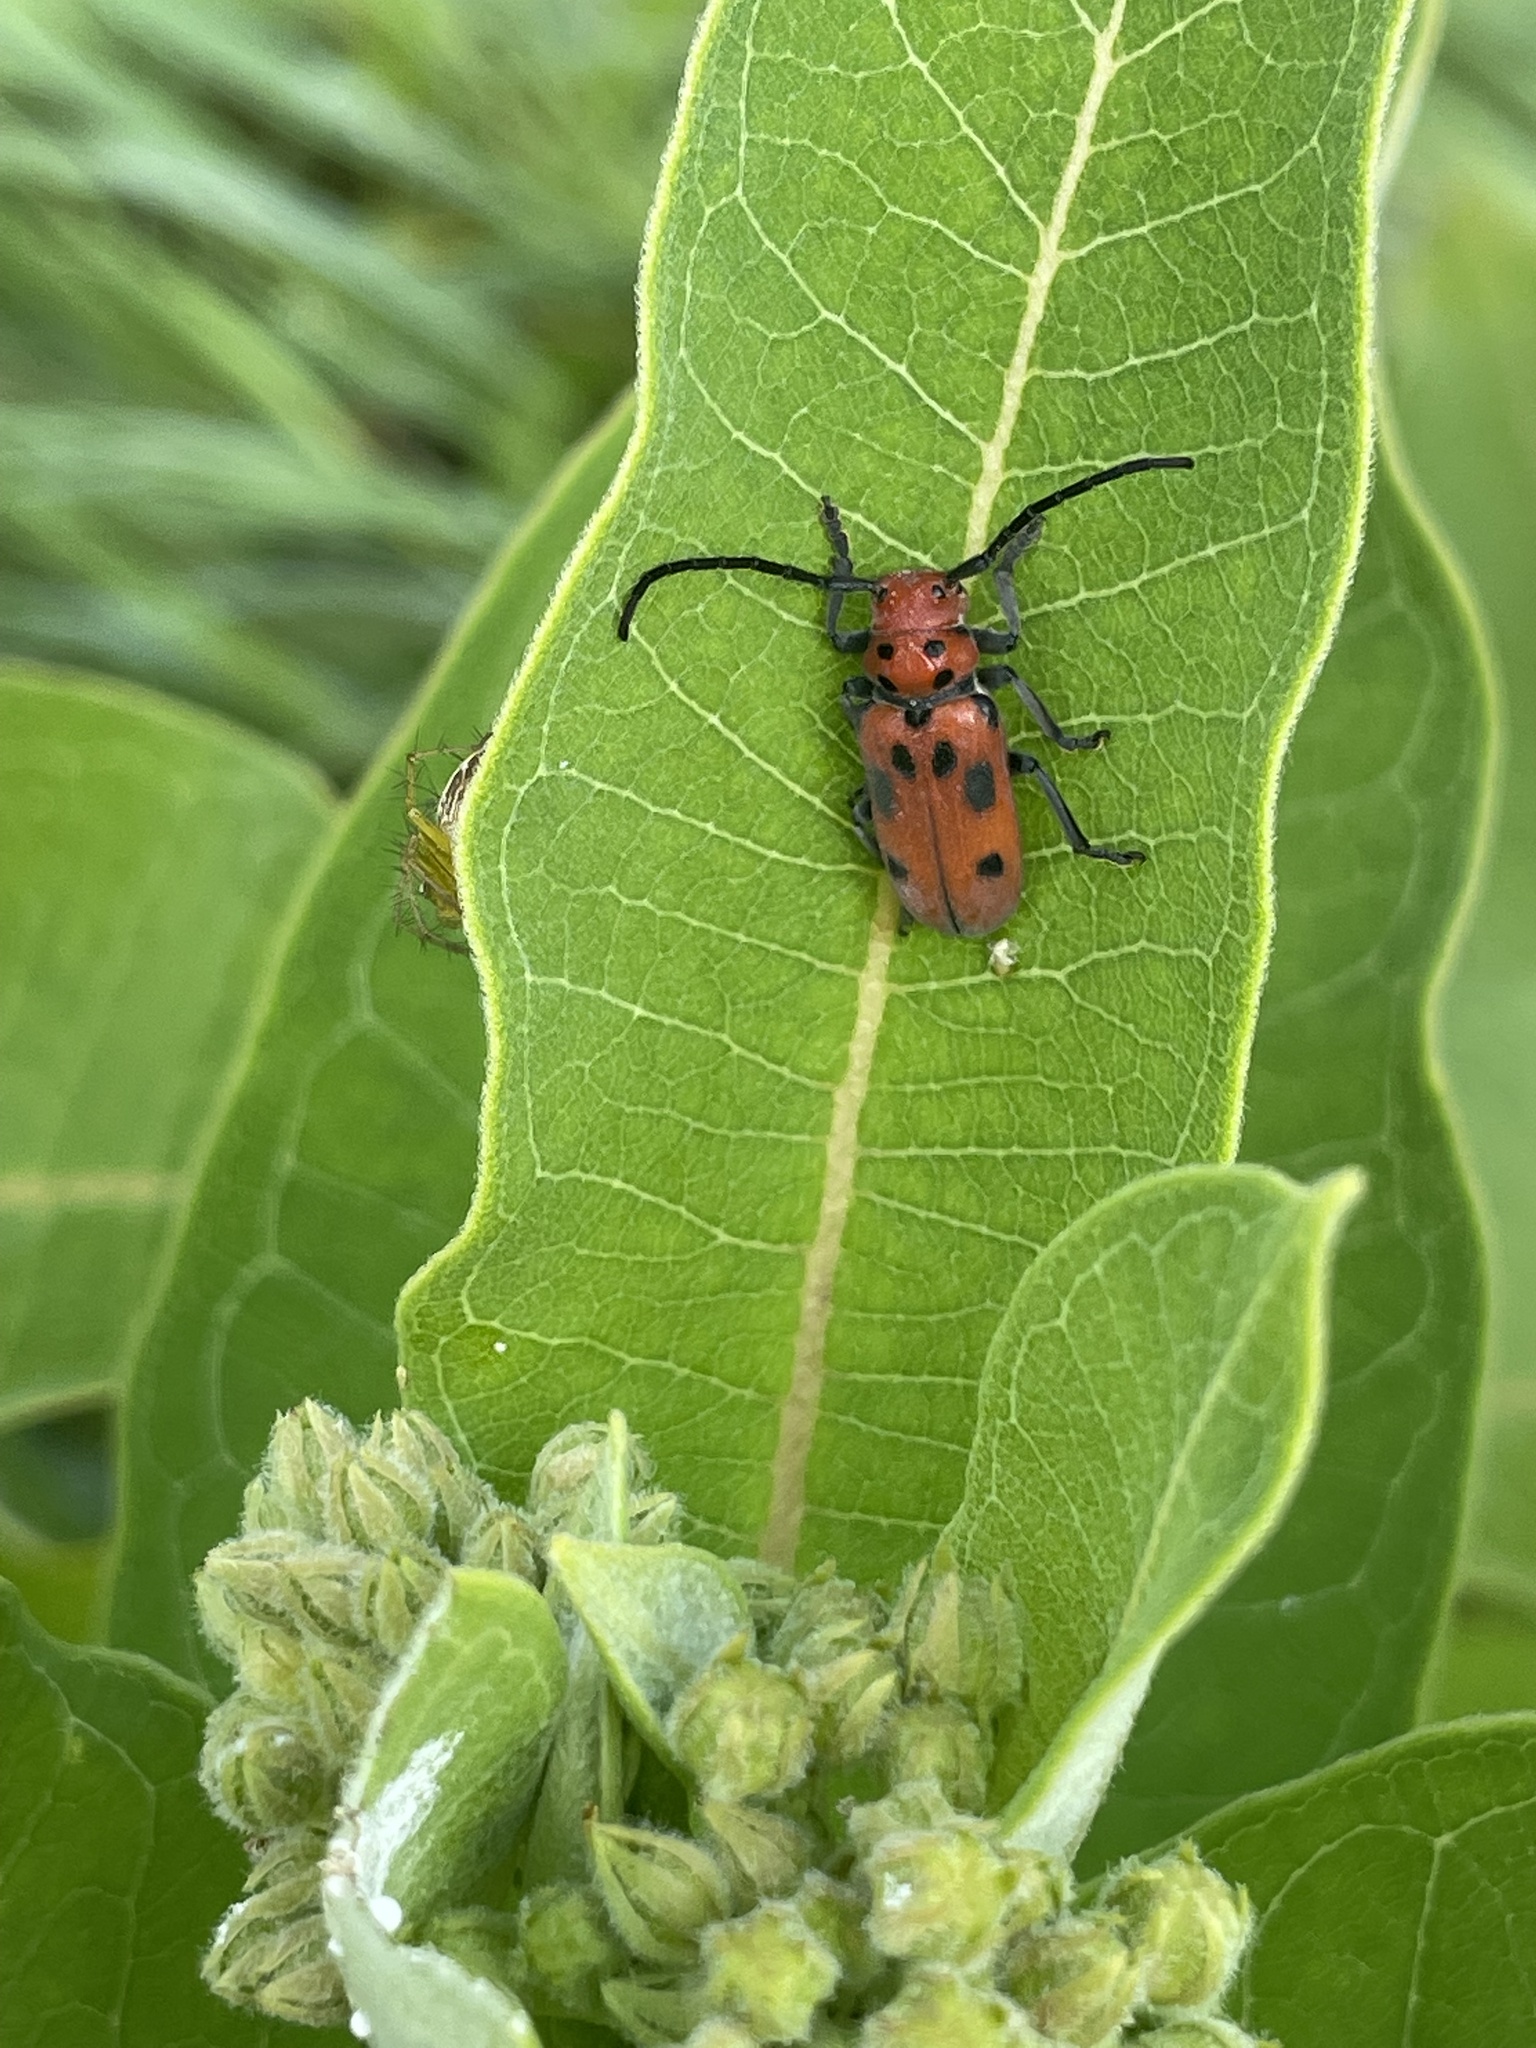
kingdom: Animalia
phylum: Arthropoda
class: Insecta
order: Coleoptera
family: Cerambycidae
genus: Tetraopes
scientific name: Tetraopes tetrophthalmus
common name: Red milkweed beetle
